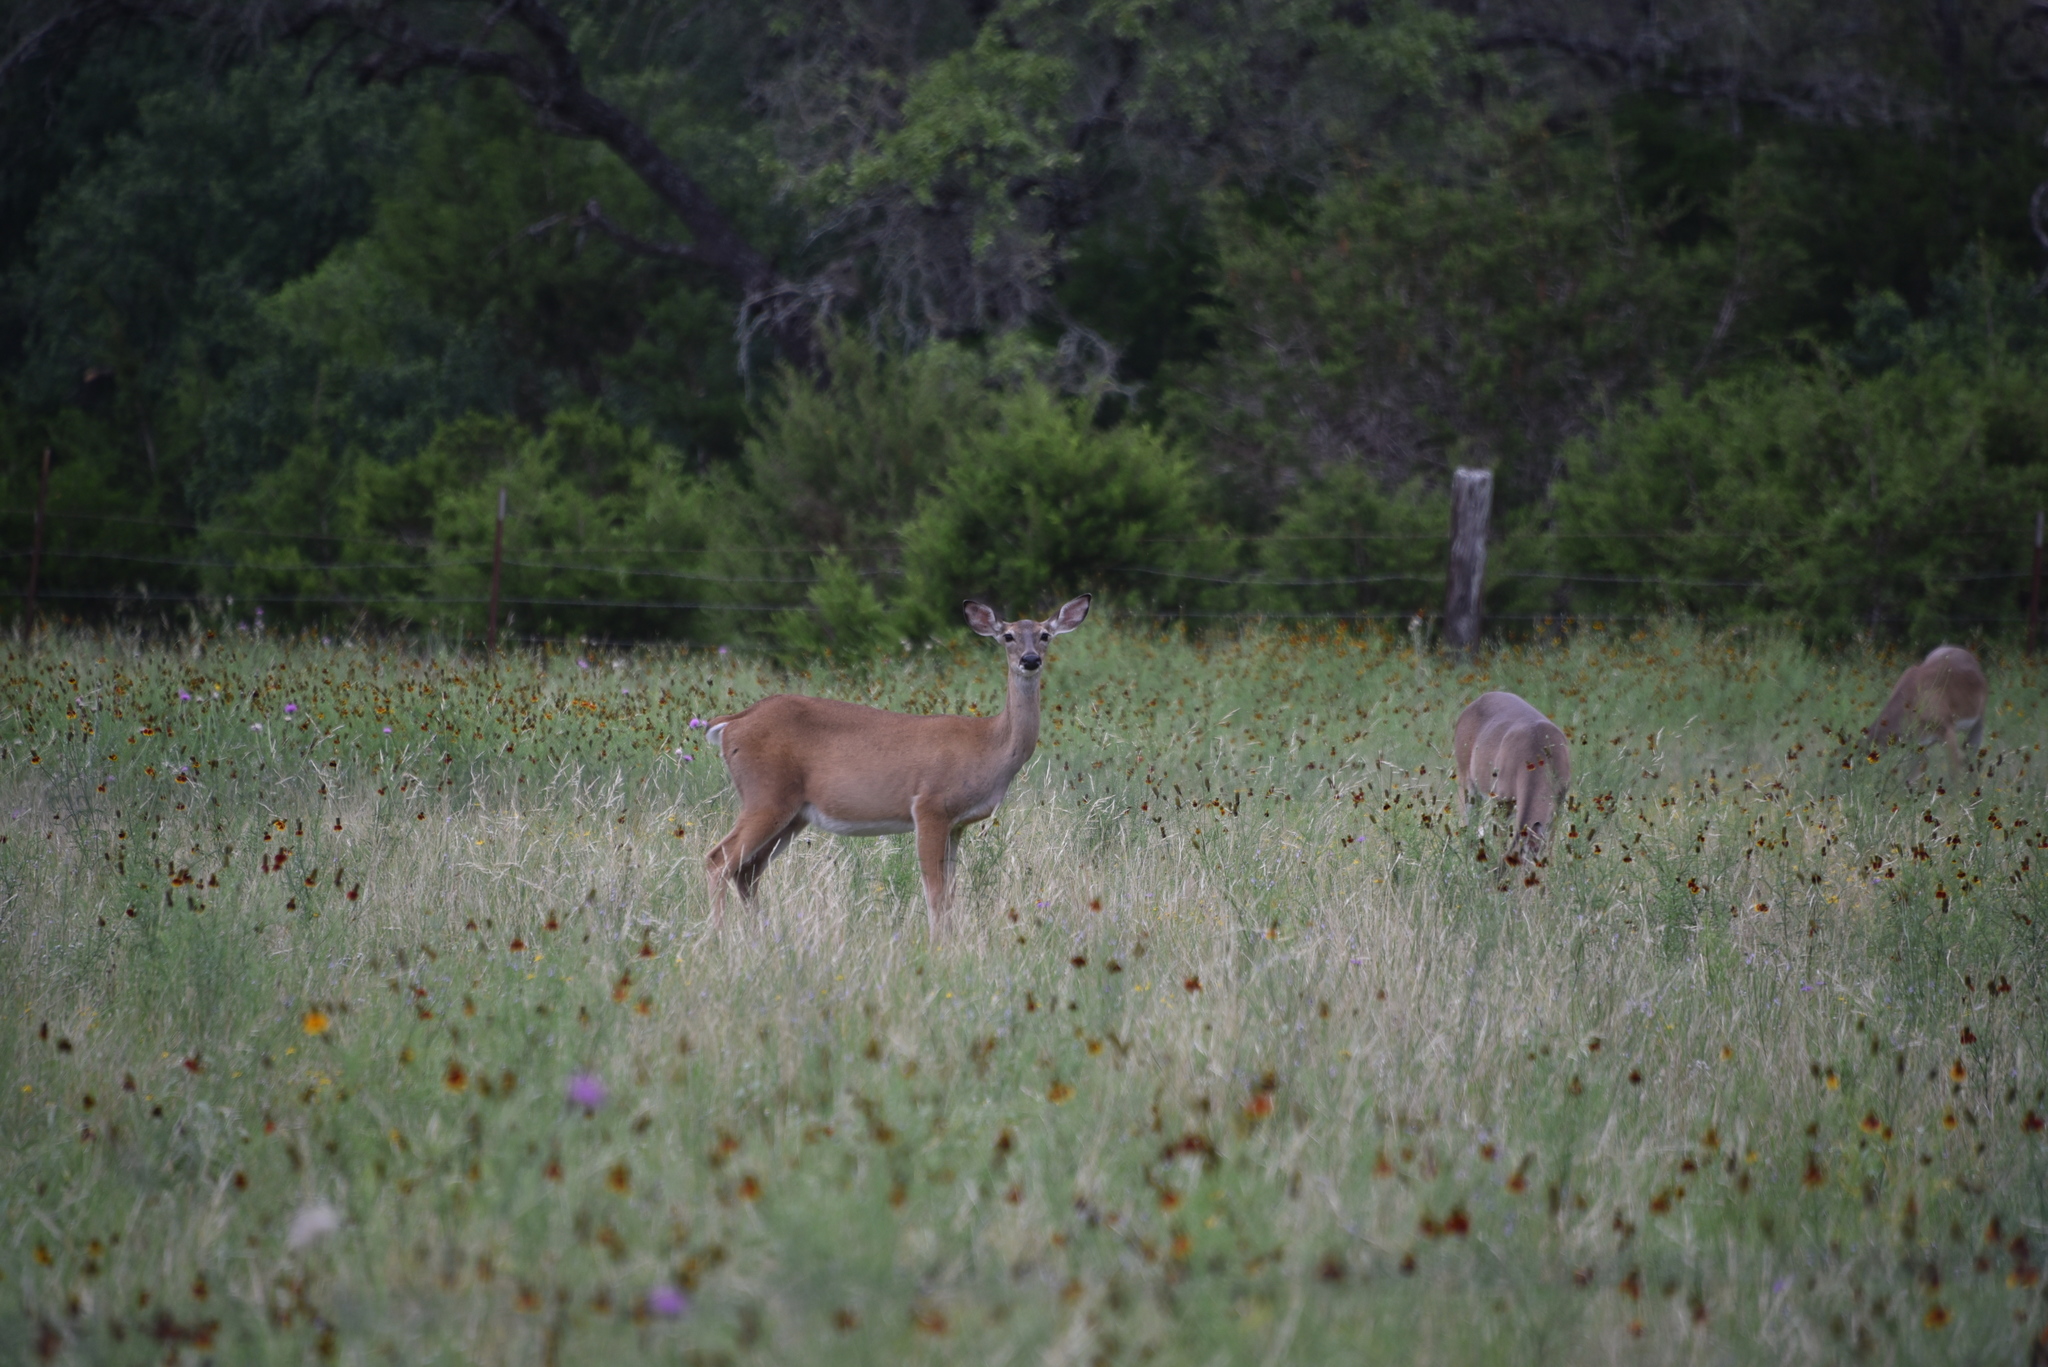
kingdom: Animalia
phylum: Chordata
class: Mammalia
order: Artiodactyla
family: Cervidae
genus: Odocoileus
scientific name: Odocoileus virginianus
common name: White-tailed deer
